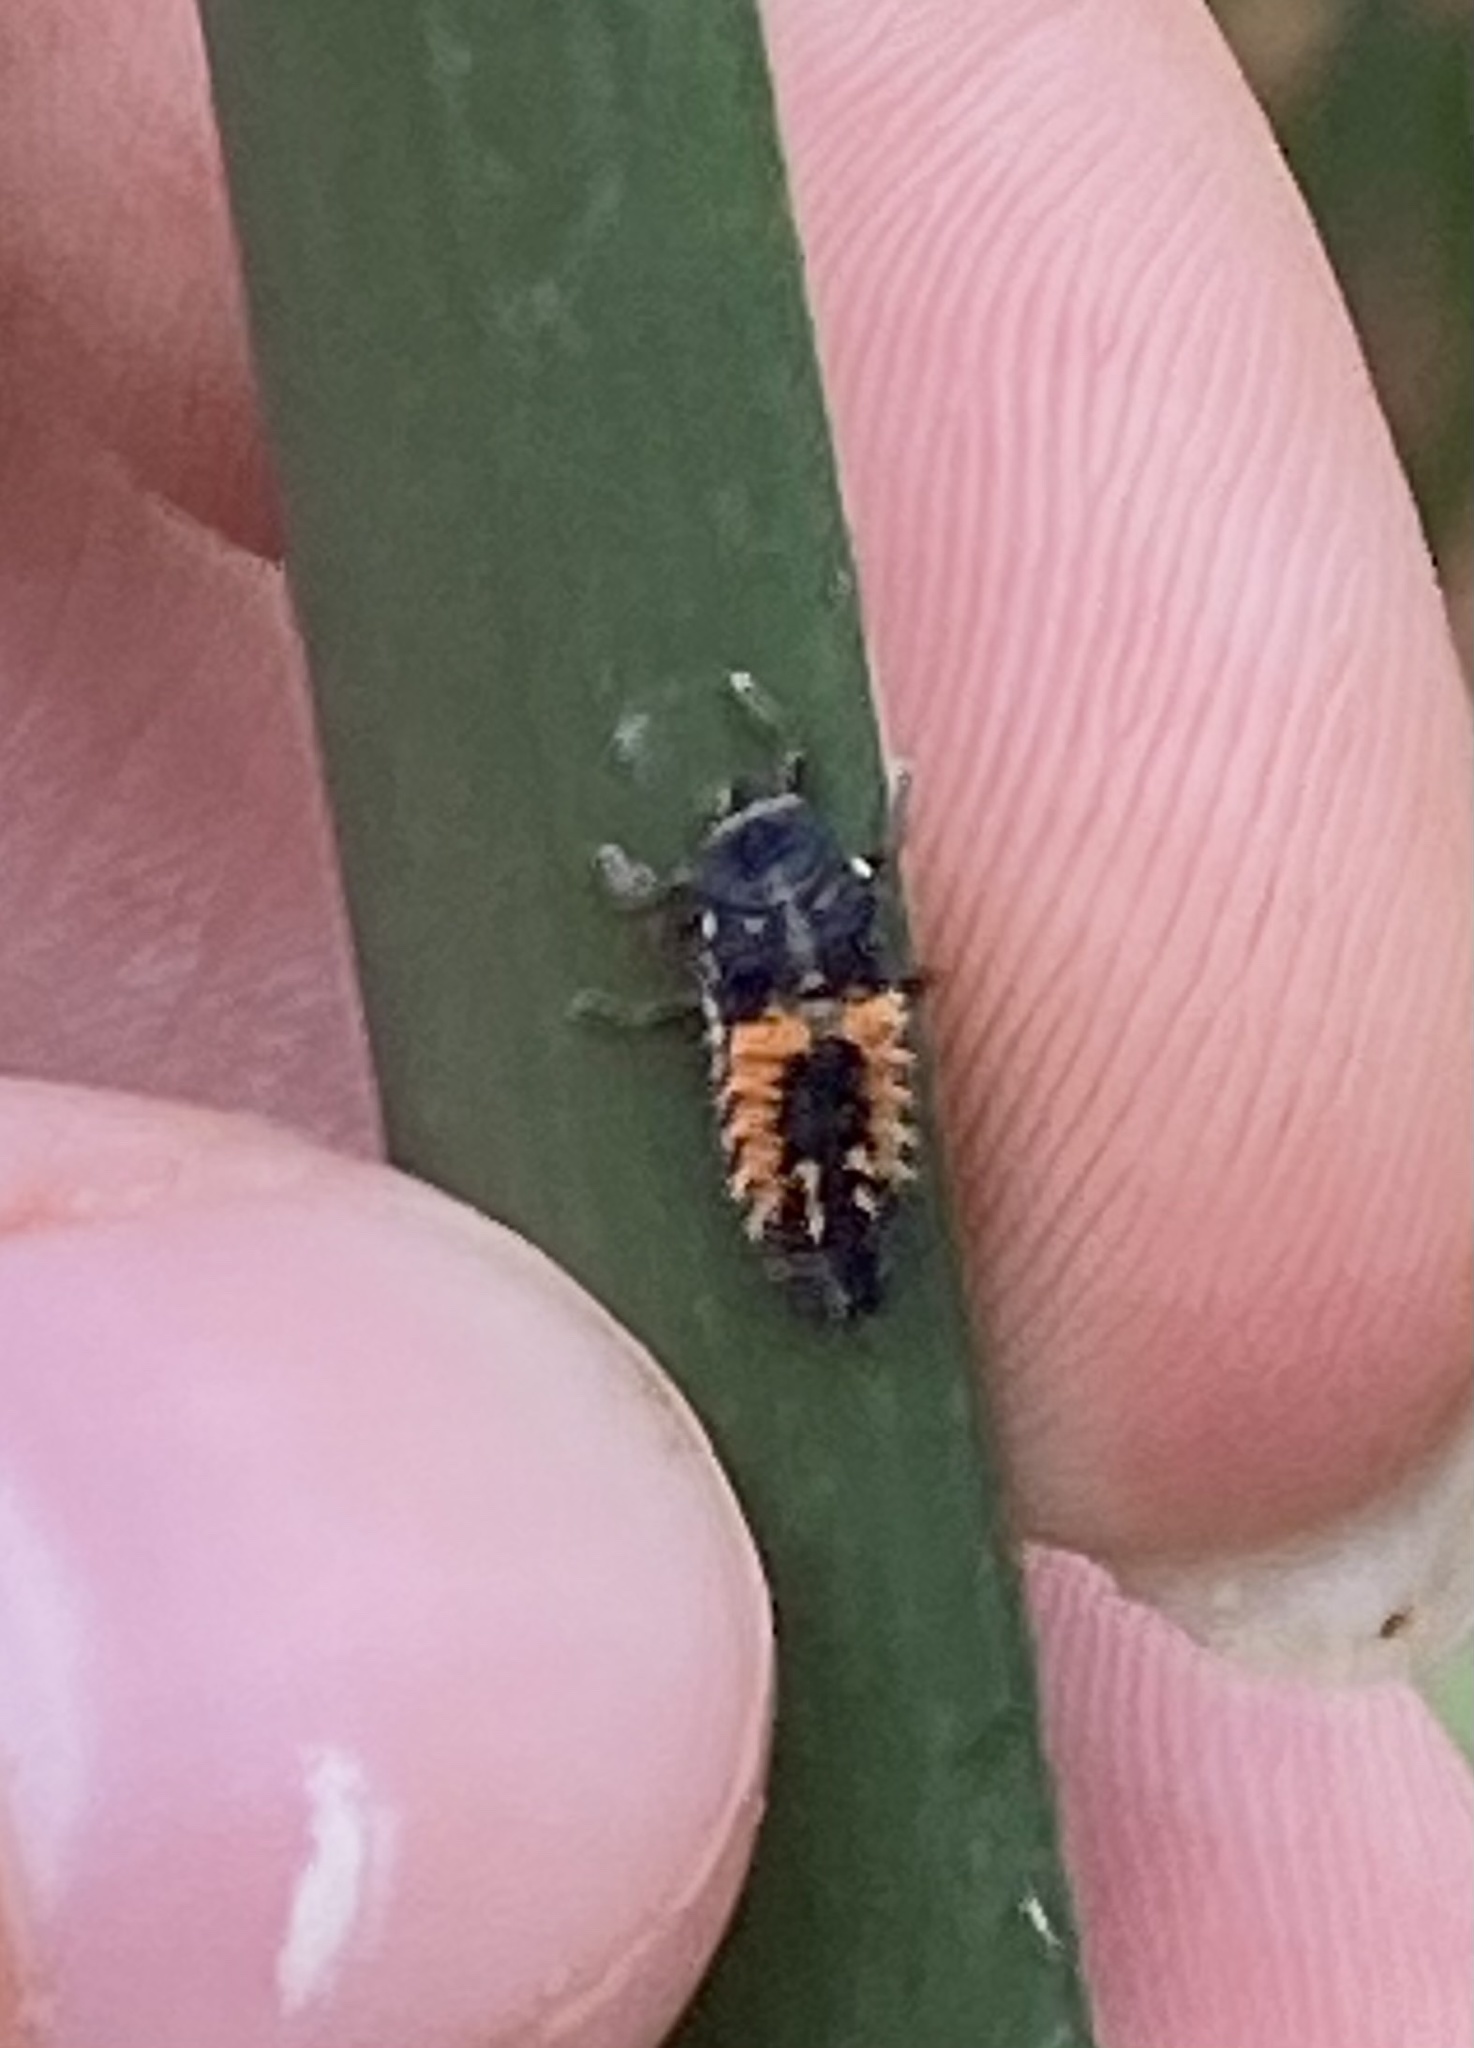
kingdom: Animalia
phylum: Arthropoda
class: Insecta
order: Coleoptera
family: Coccinellidae
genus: Harmonia
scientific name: Harmonia axyridis
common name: Harlequin ladybird
